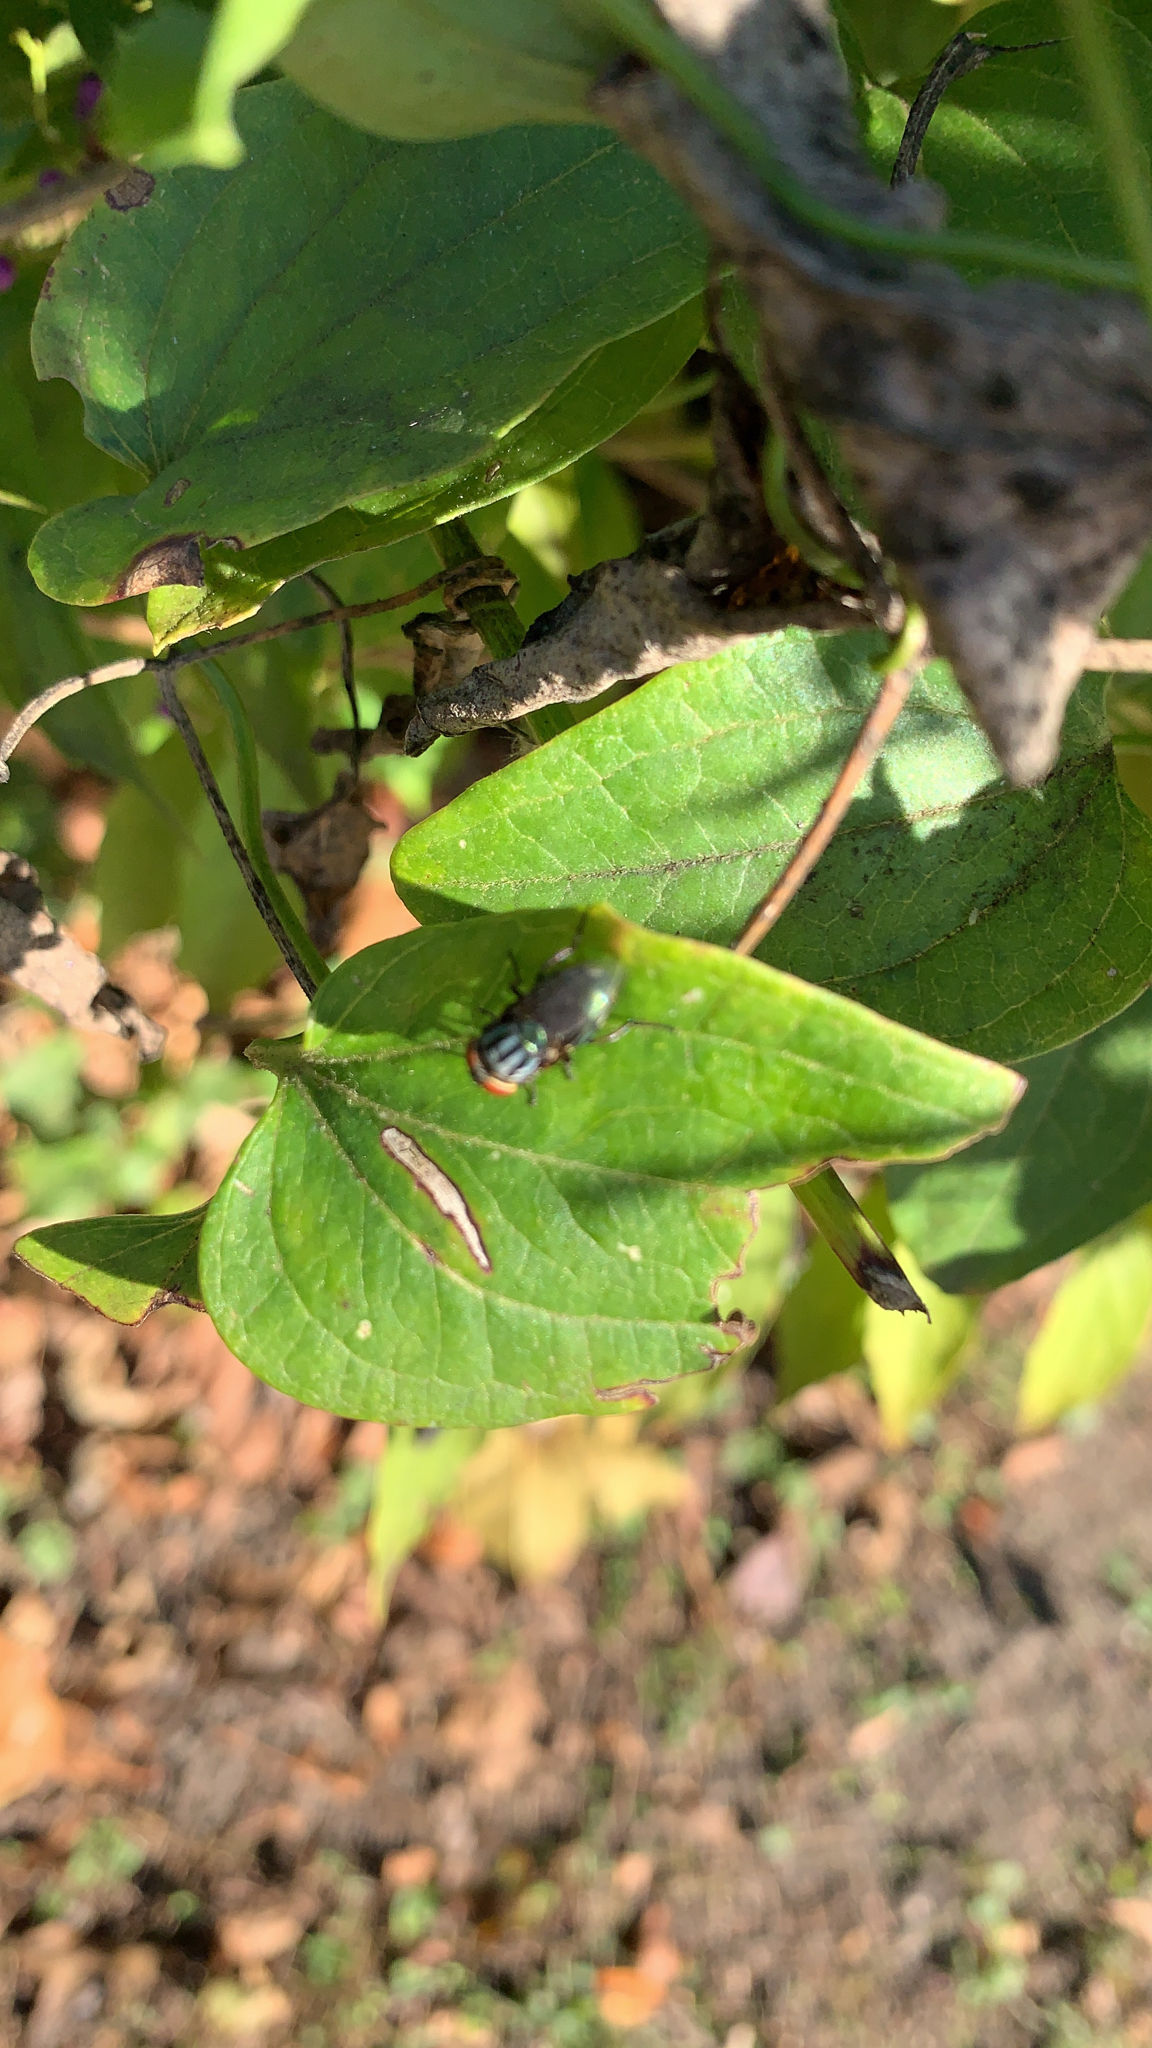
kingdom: Animalia
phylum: Arthropoda
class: Insecta
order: Diptera
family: Calliphoridae
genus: Cochliomyia
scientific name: Cochliomyia macellaria
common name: Secondary screwworm
